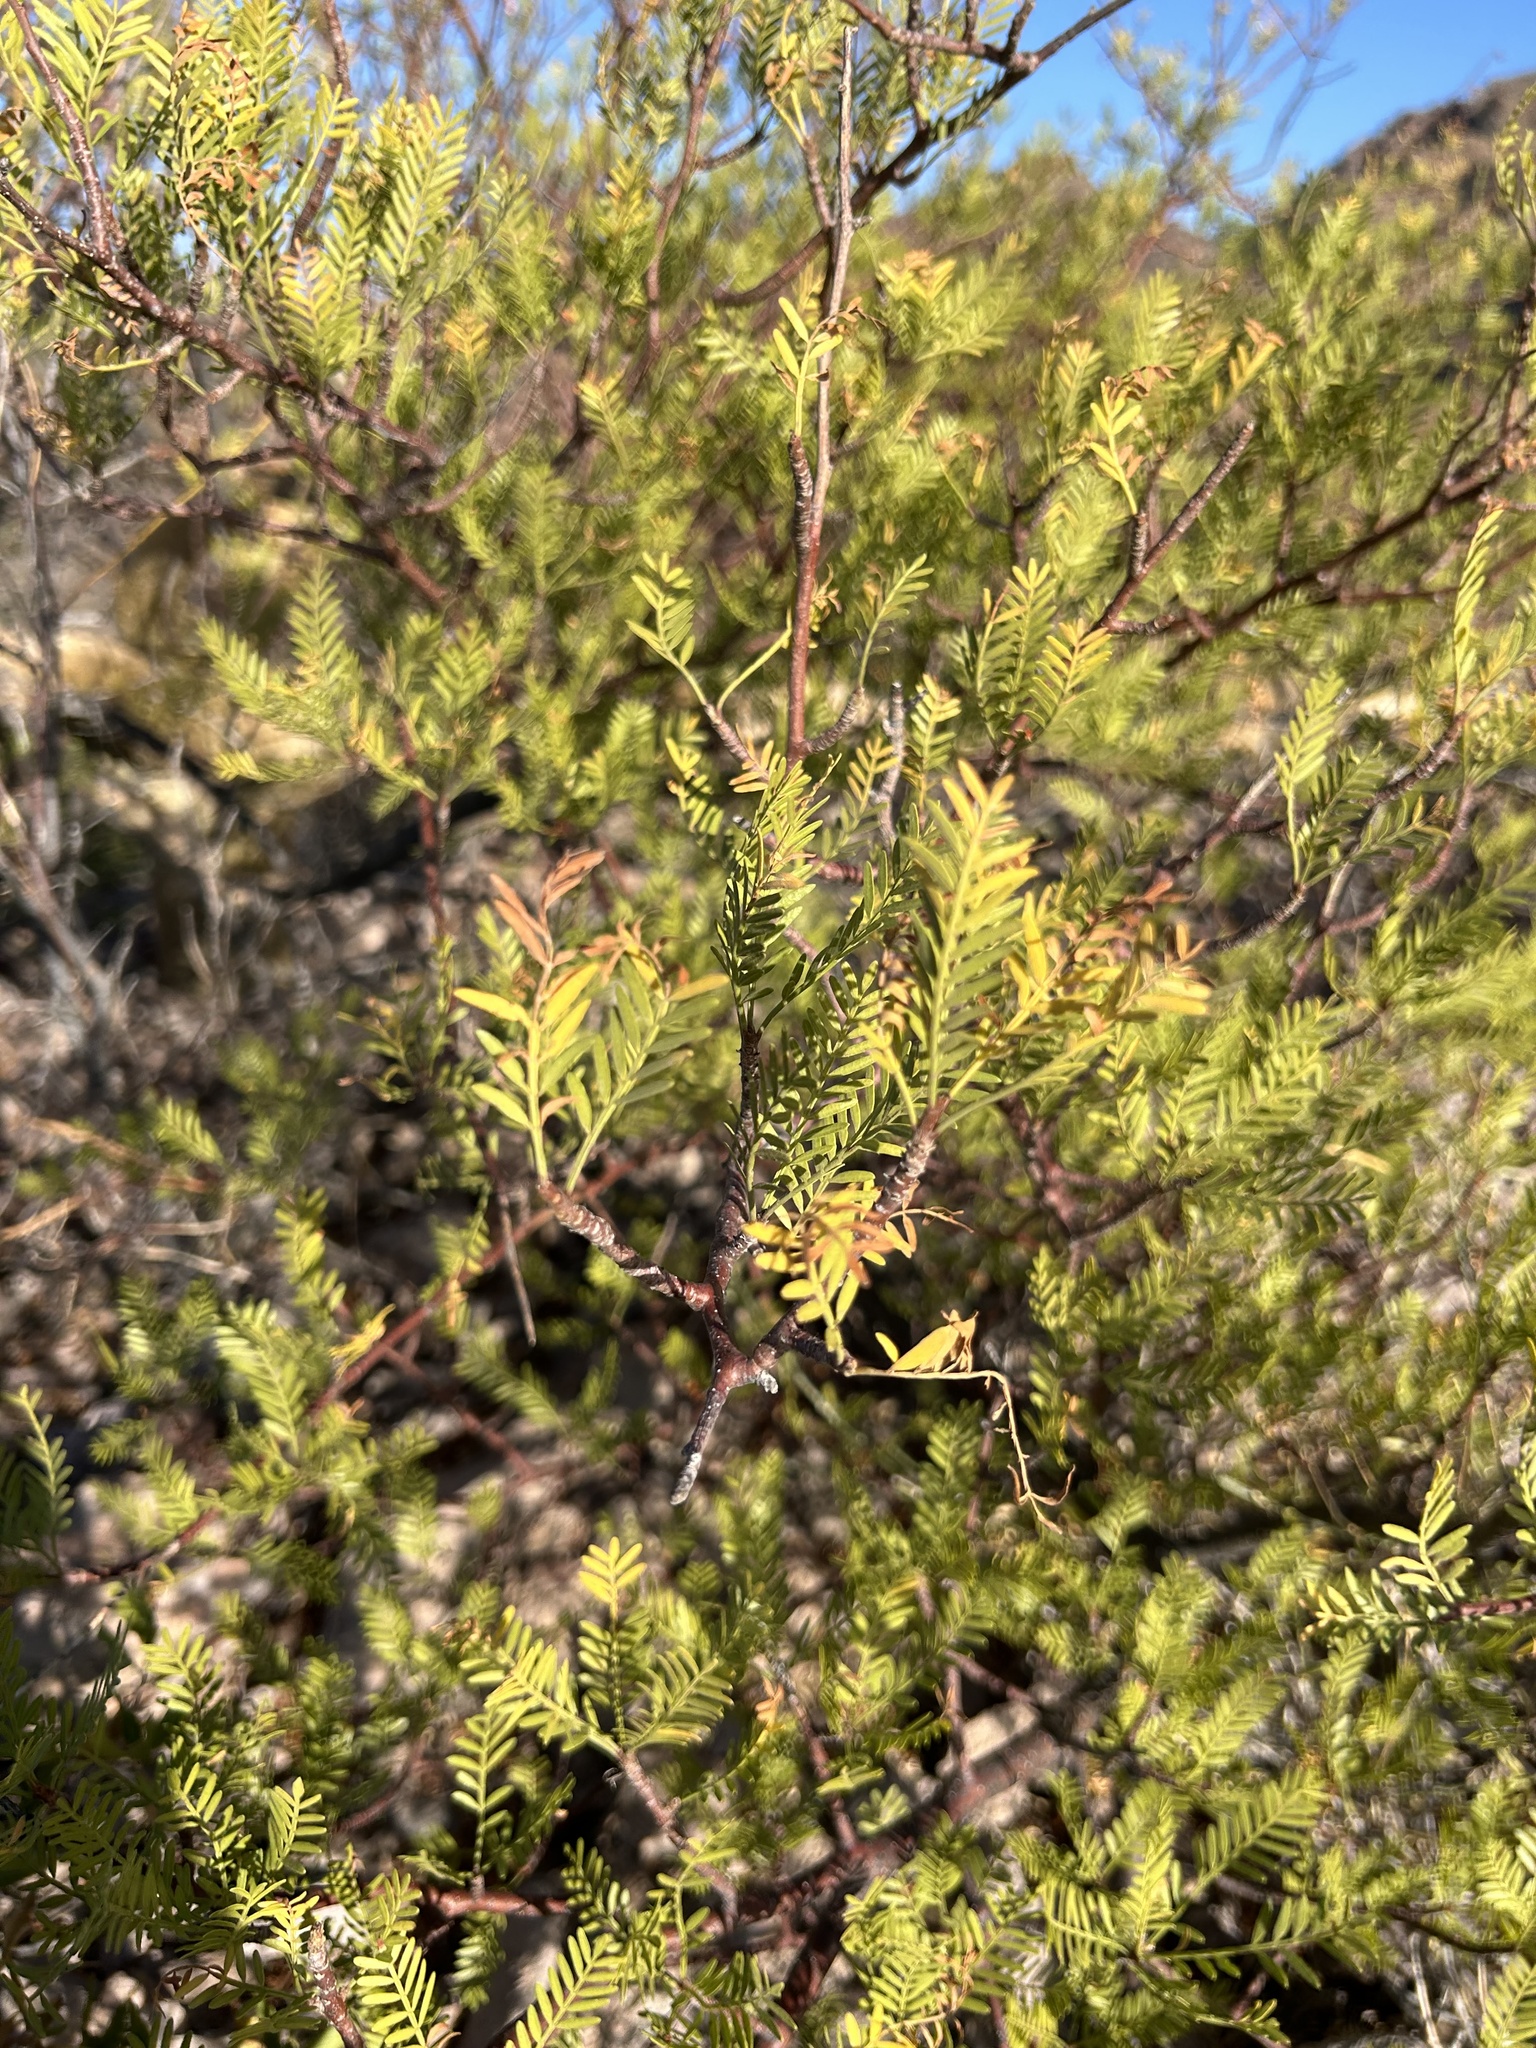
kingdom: Plantae
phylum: Tracheophyta
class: Magnoliopsida
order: Sapindales
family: Burseraceae
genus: Bursera
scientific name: Bursera microphylla
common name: Elephant tree
